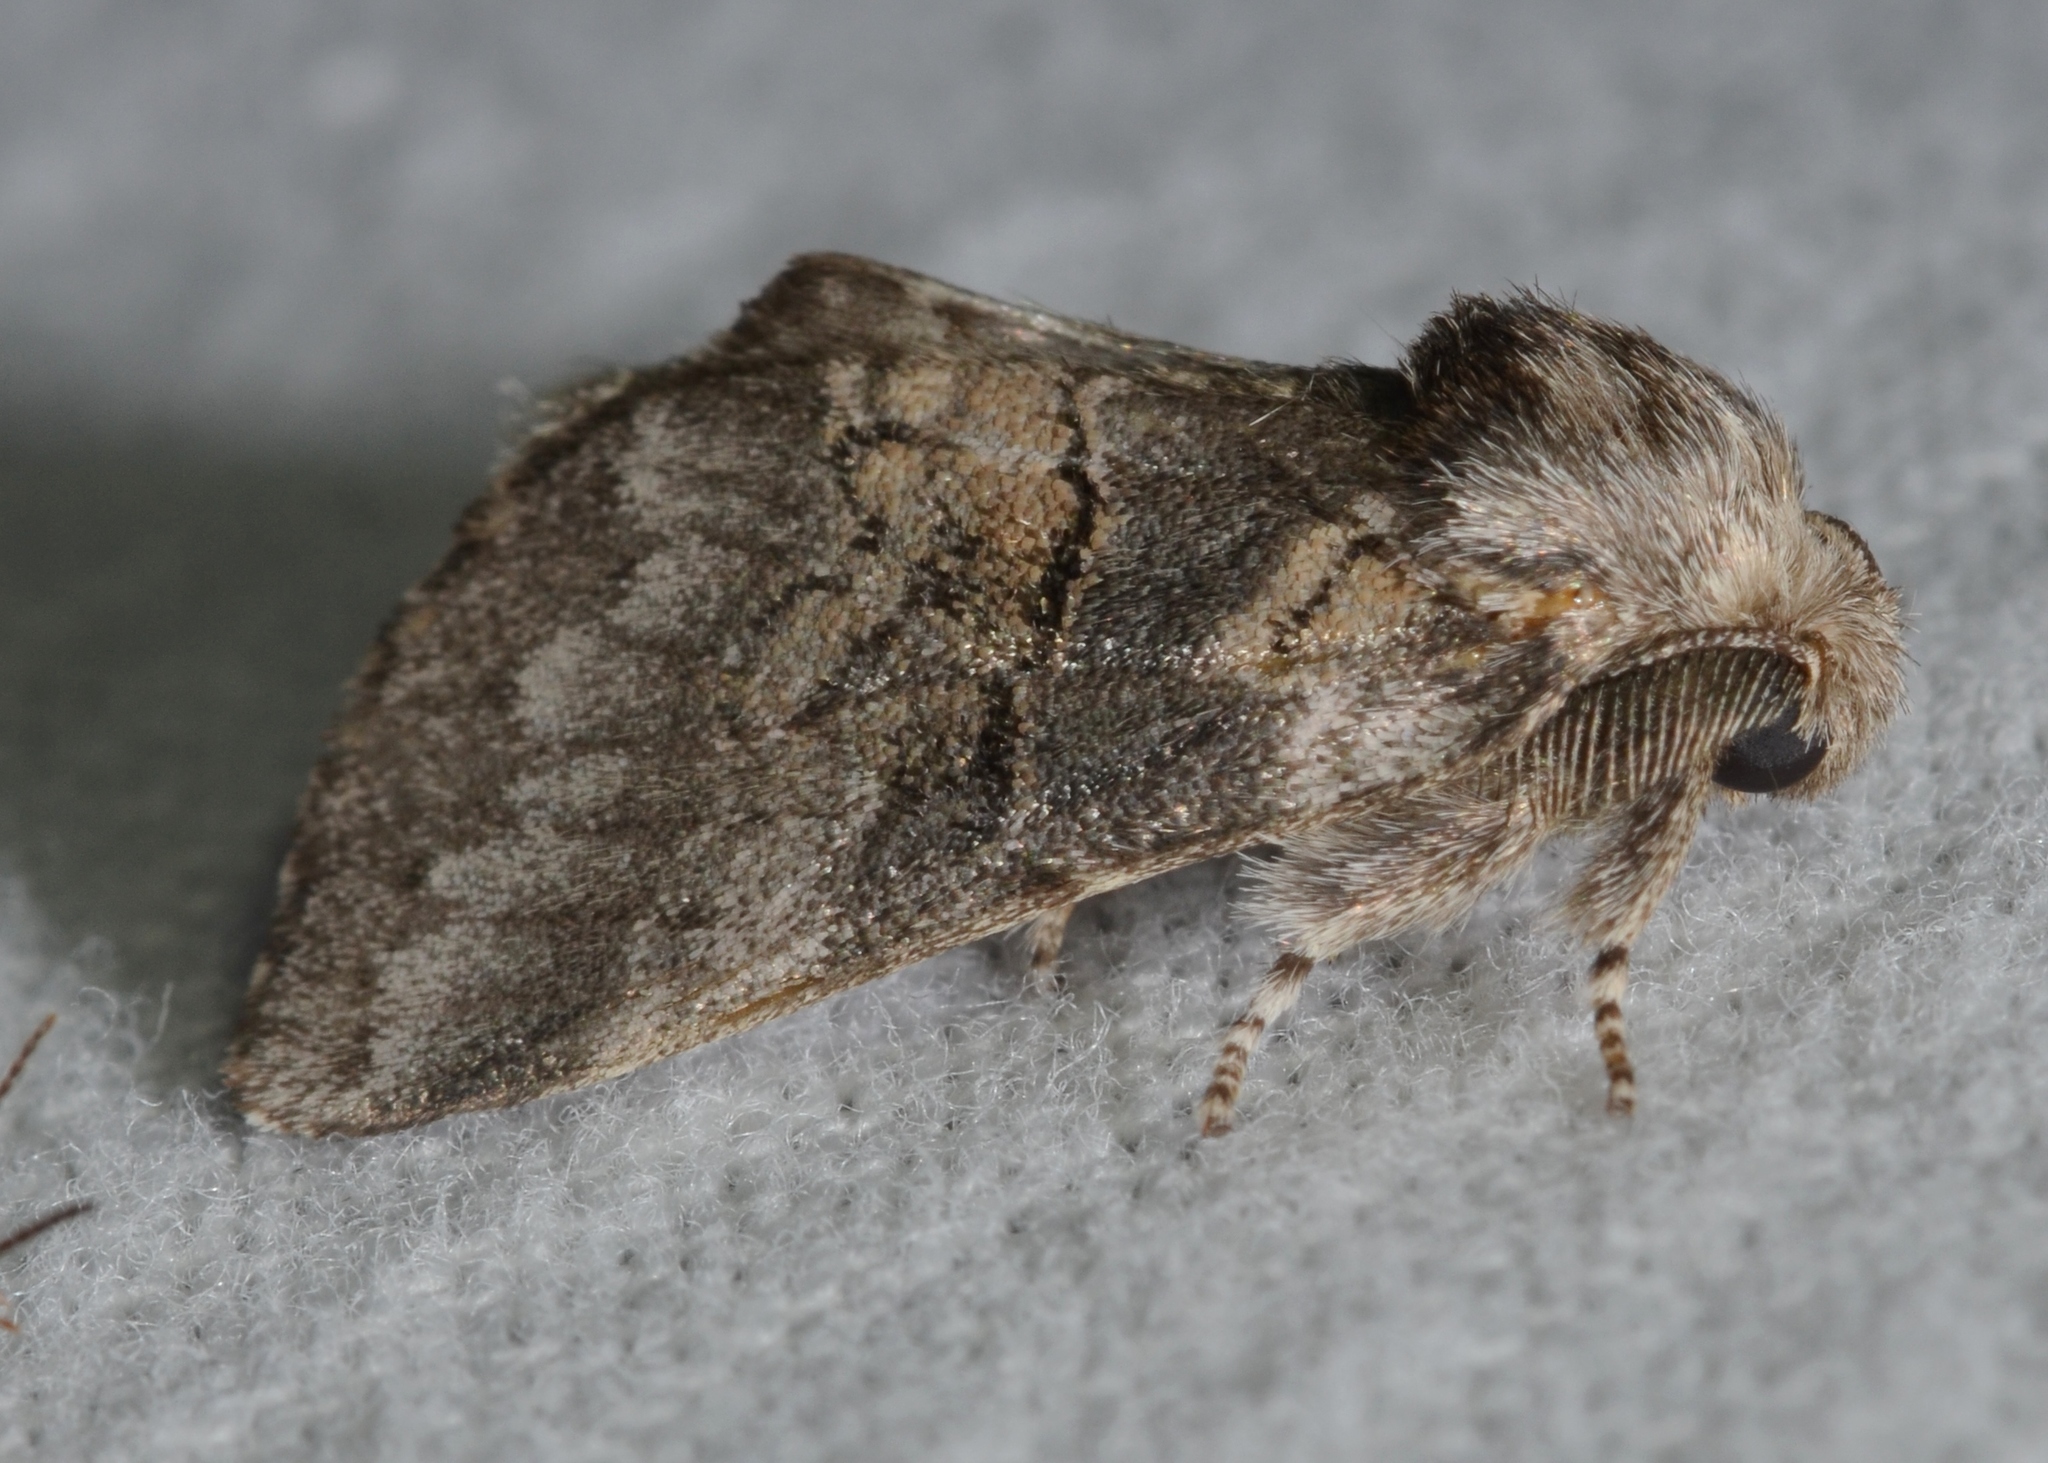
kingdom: Animalia
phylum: Arthropoda
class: Insecta
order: Lepidoptera
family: Notodontidae
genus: Gluphisia
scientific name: Gluphisia septentrionis
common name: Common gluphisia
